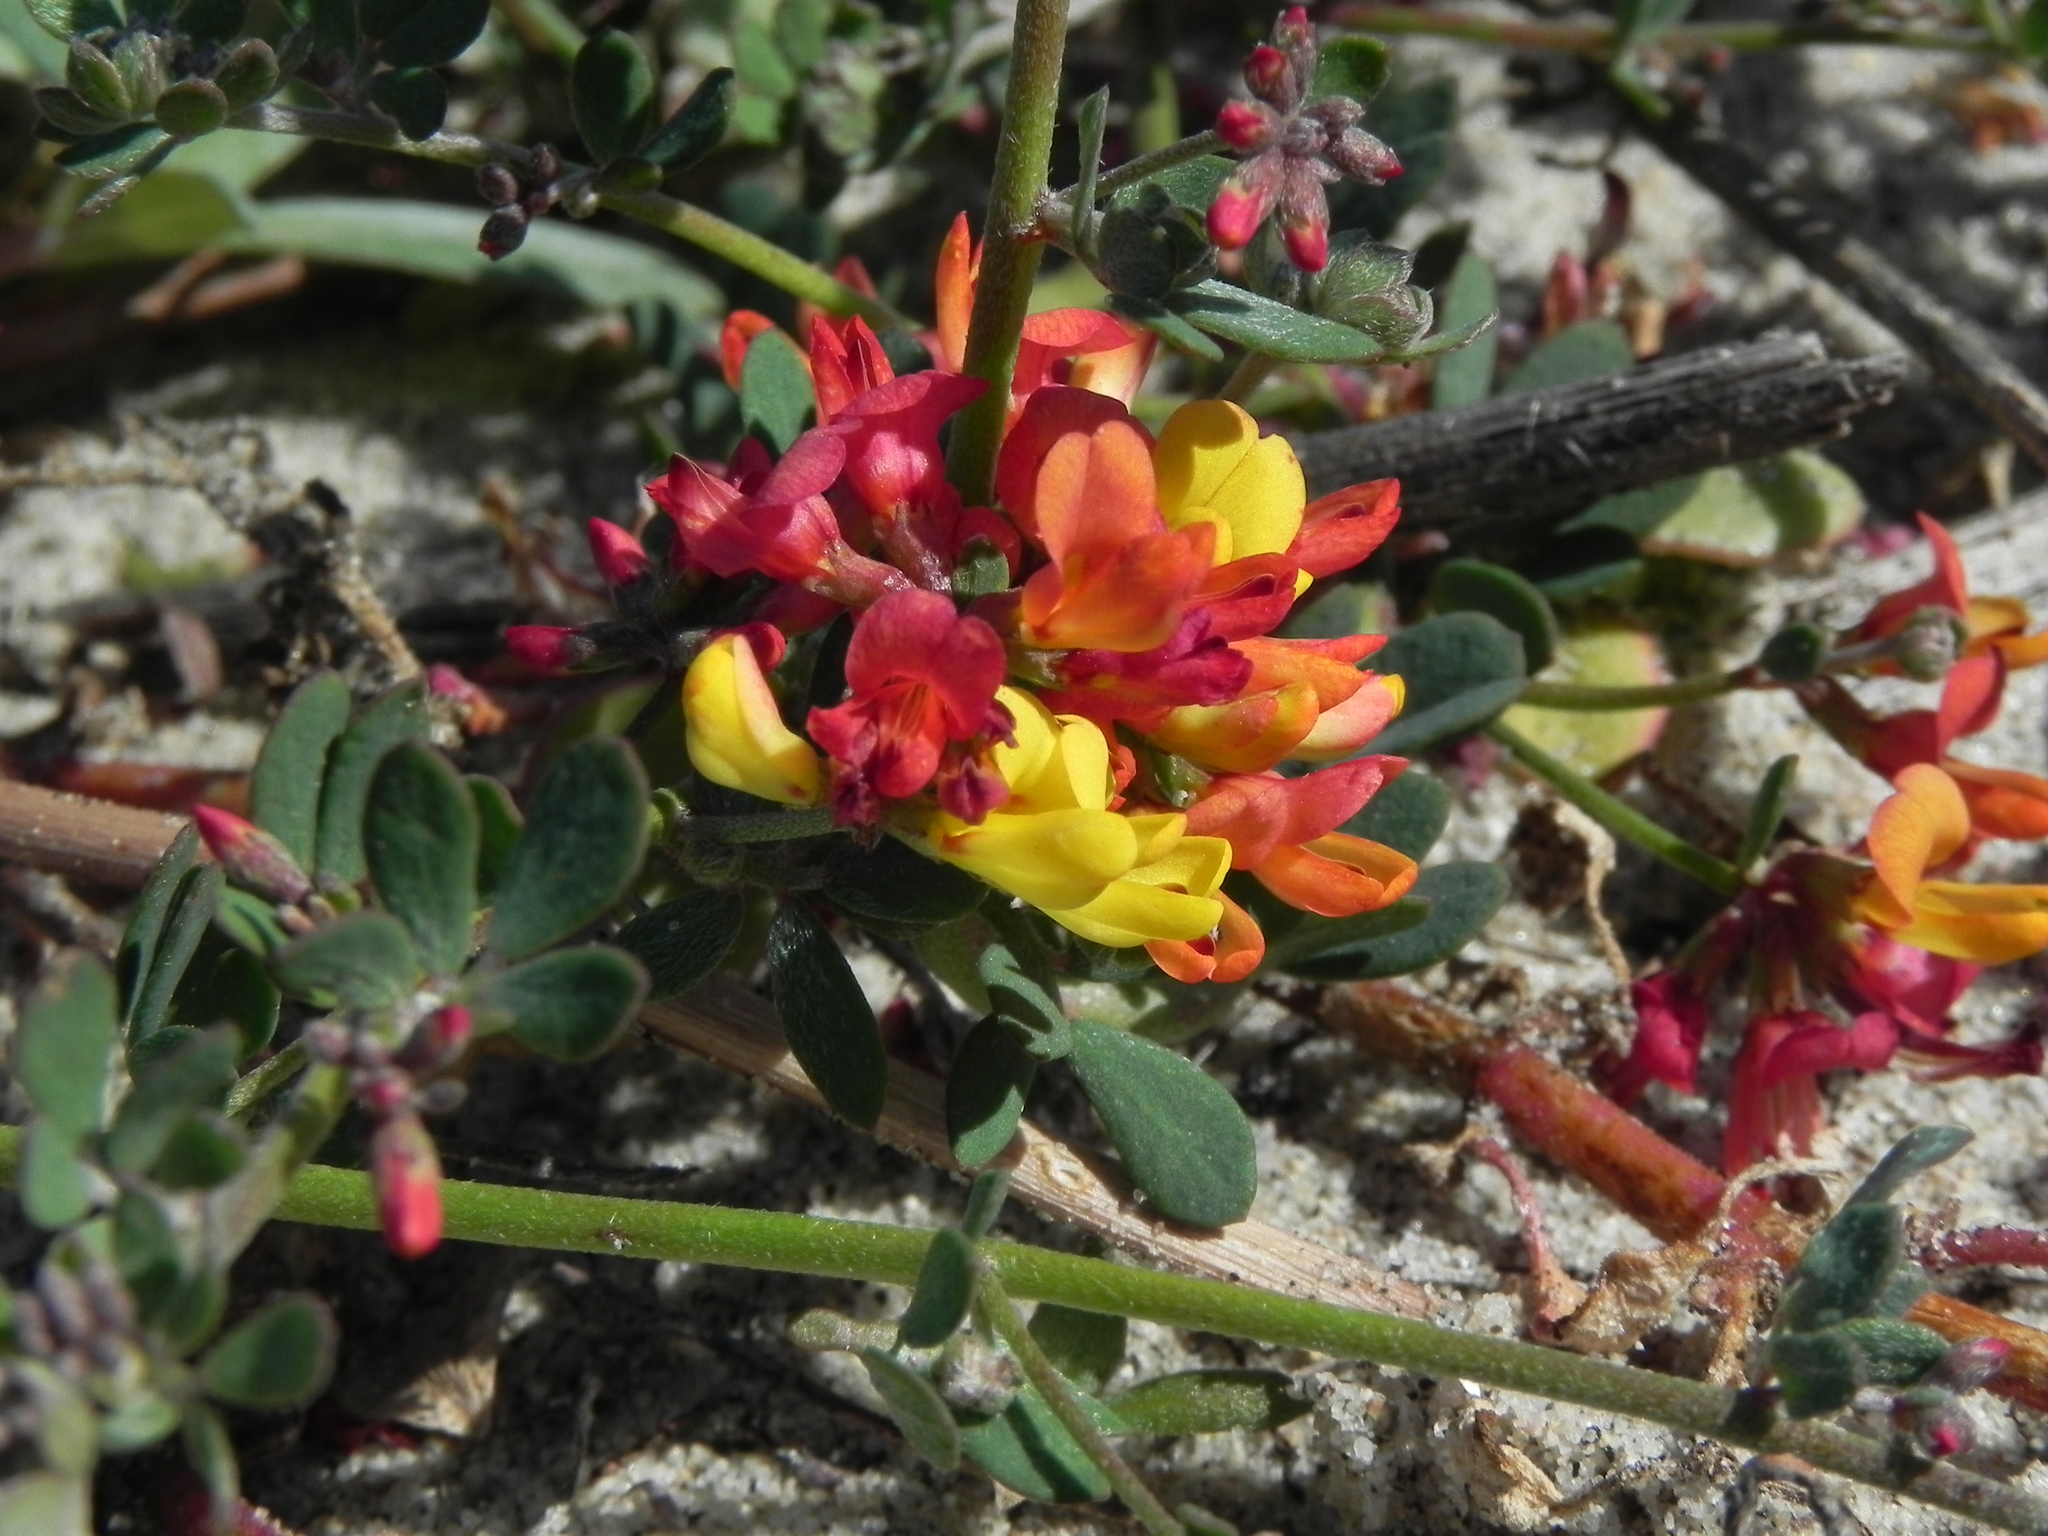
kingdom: Plantae
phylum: Tracheophyta
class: Magnoliopsida
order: Fabales
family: Fabaceae
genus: Acmispon
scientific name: Acmispon prostratus
